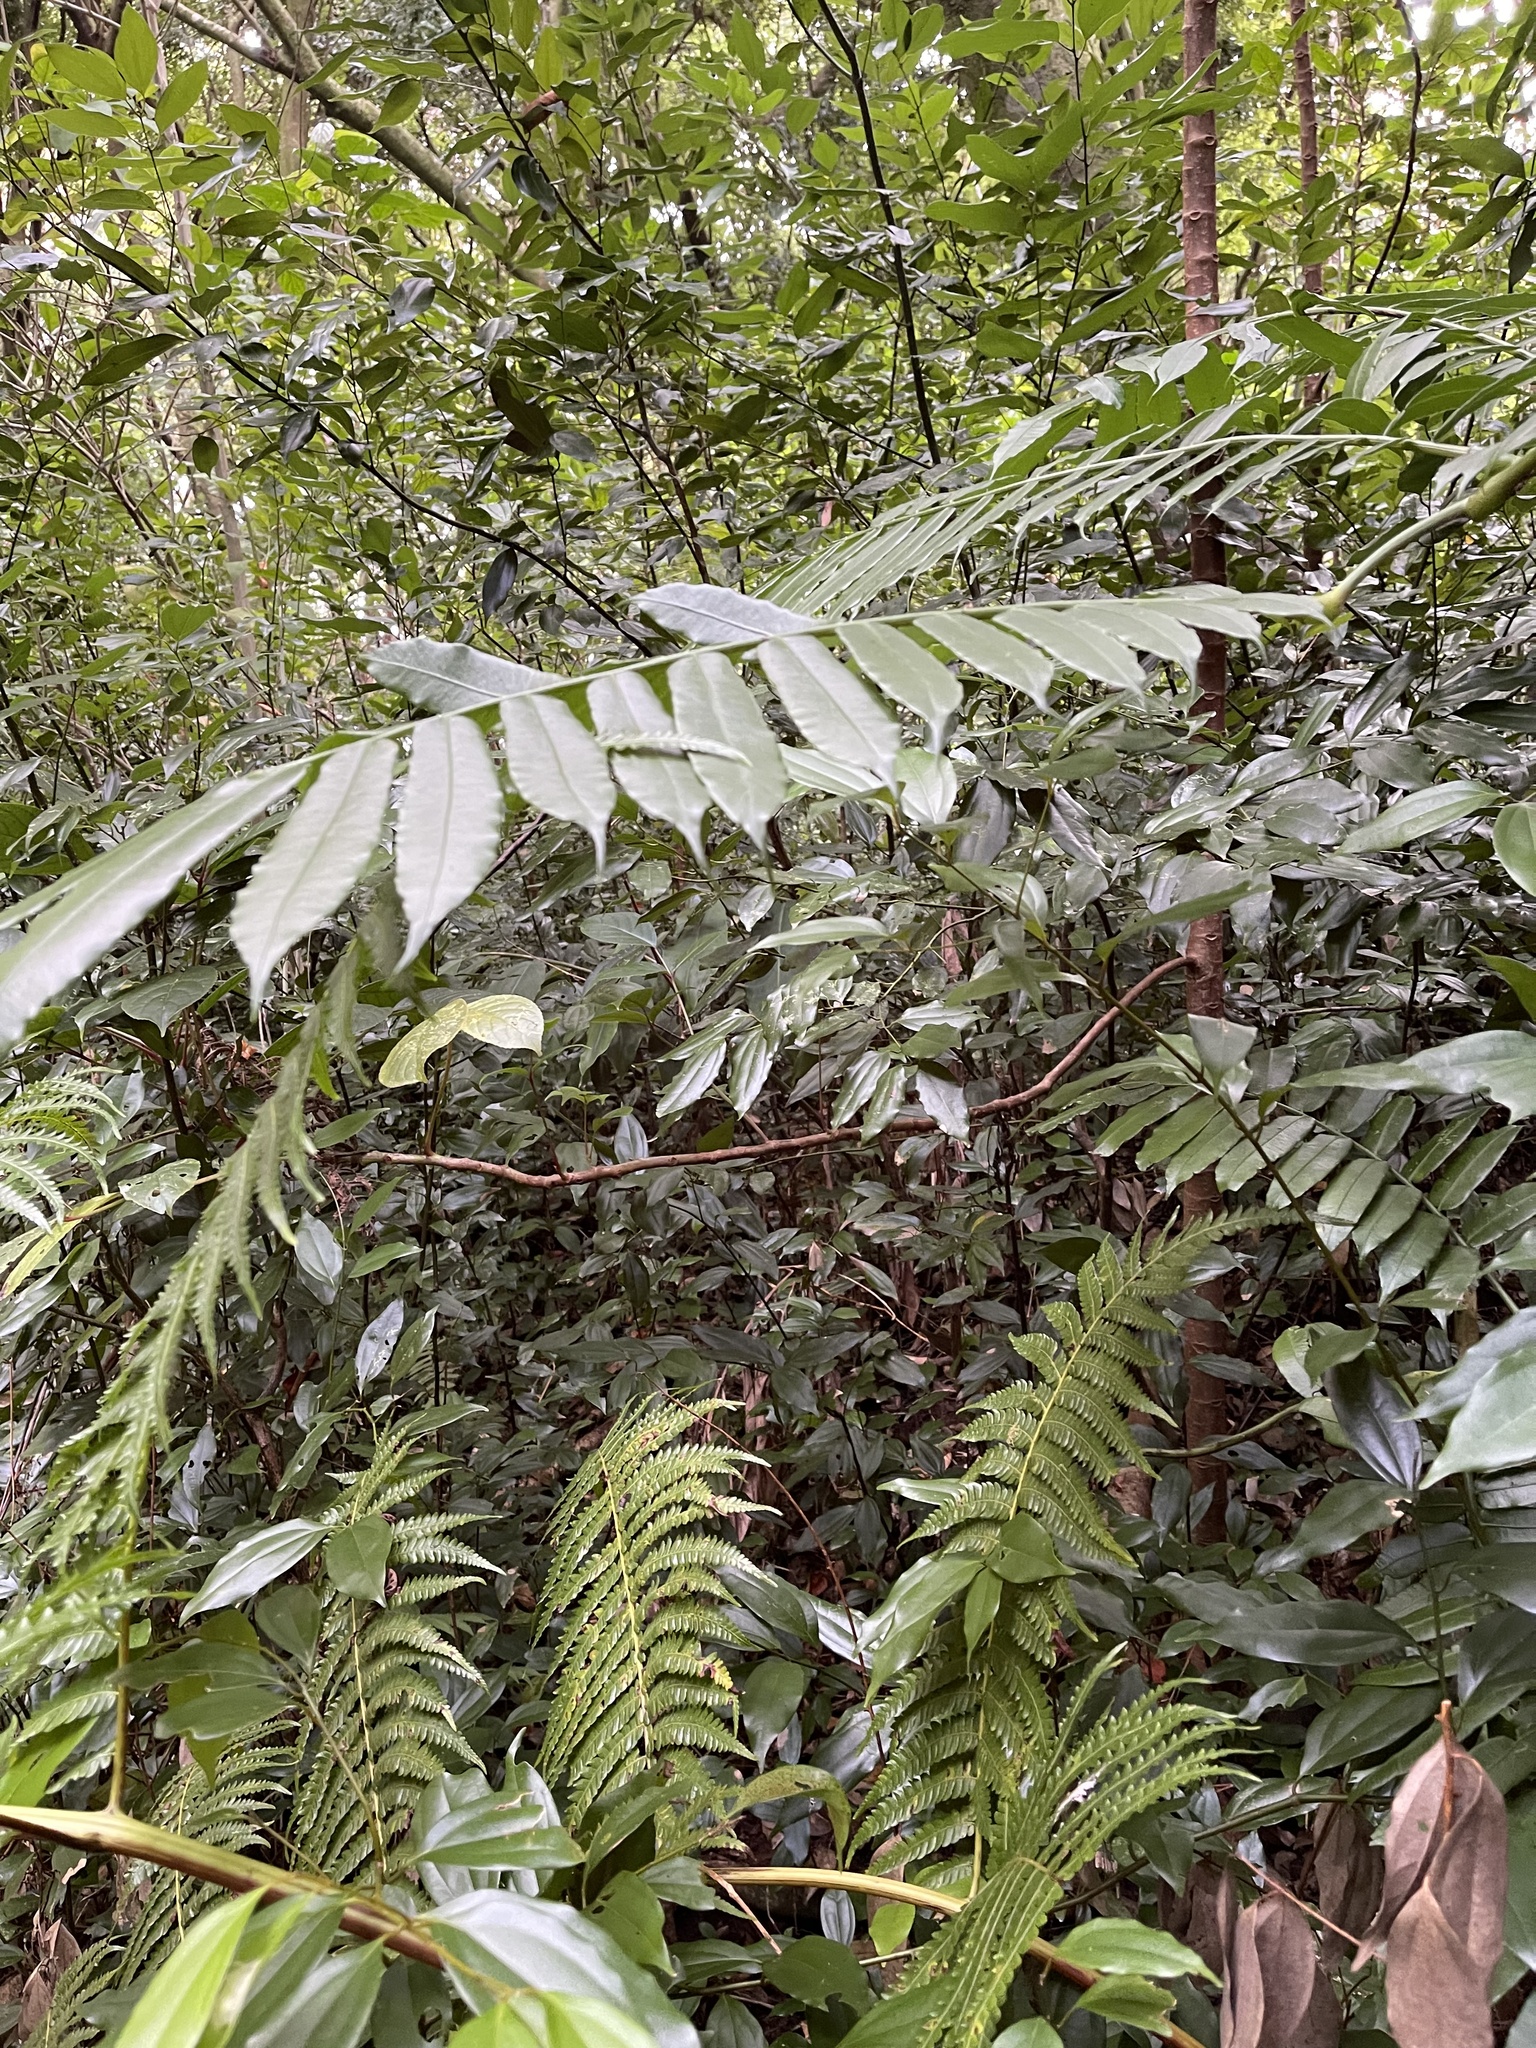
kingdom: Plantae
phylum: Tracheophyta
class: Polypodiopsida
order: Marattiales
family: Marattiaceae
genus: Angiopteris
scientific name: Angiopteris evecta
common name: Mule's-foot fern
